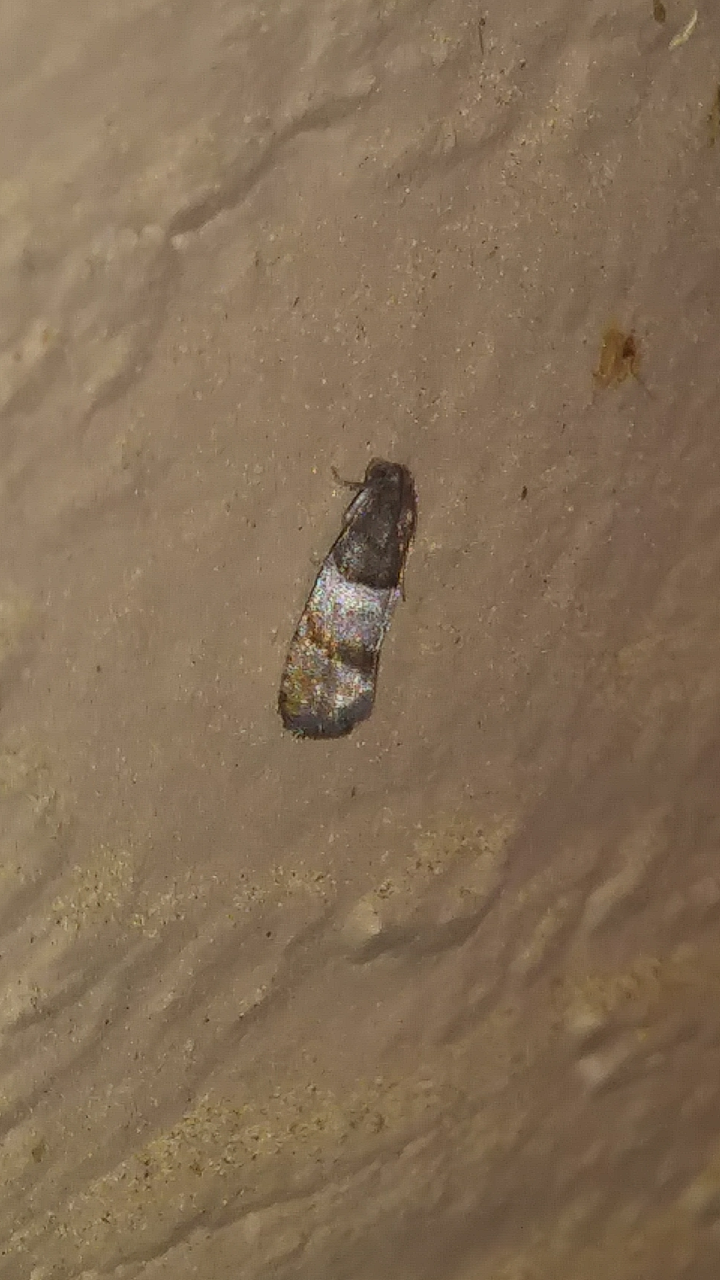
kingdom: Animalia
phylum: Arthropoda
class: Insecta
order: Lepidoptera
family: Tortricidae
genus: Larisa
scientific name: Larisa subsolana
